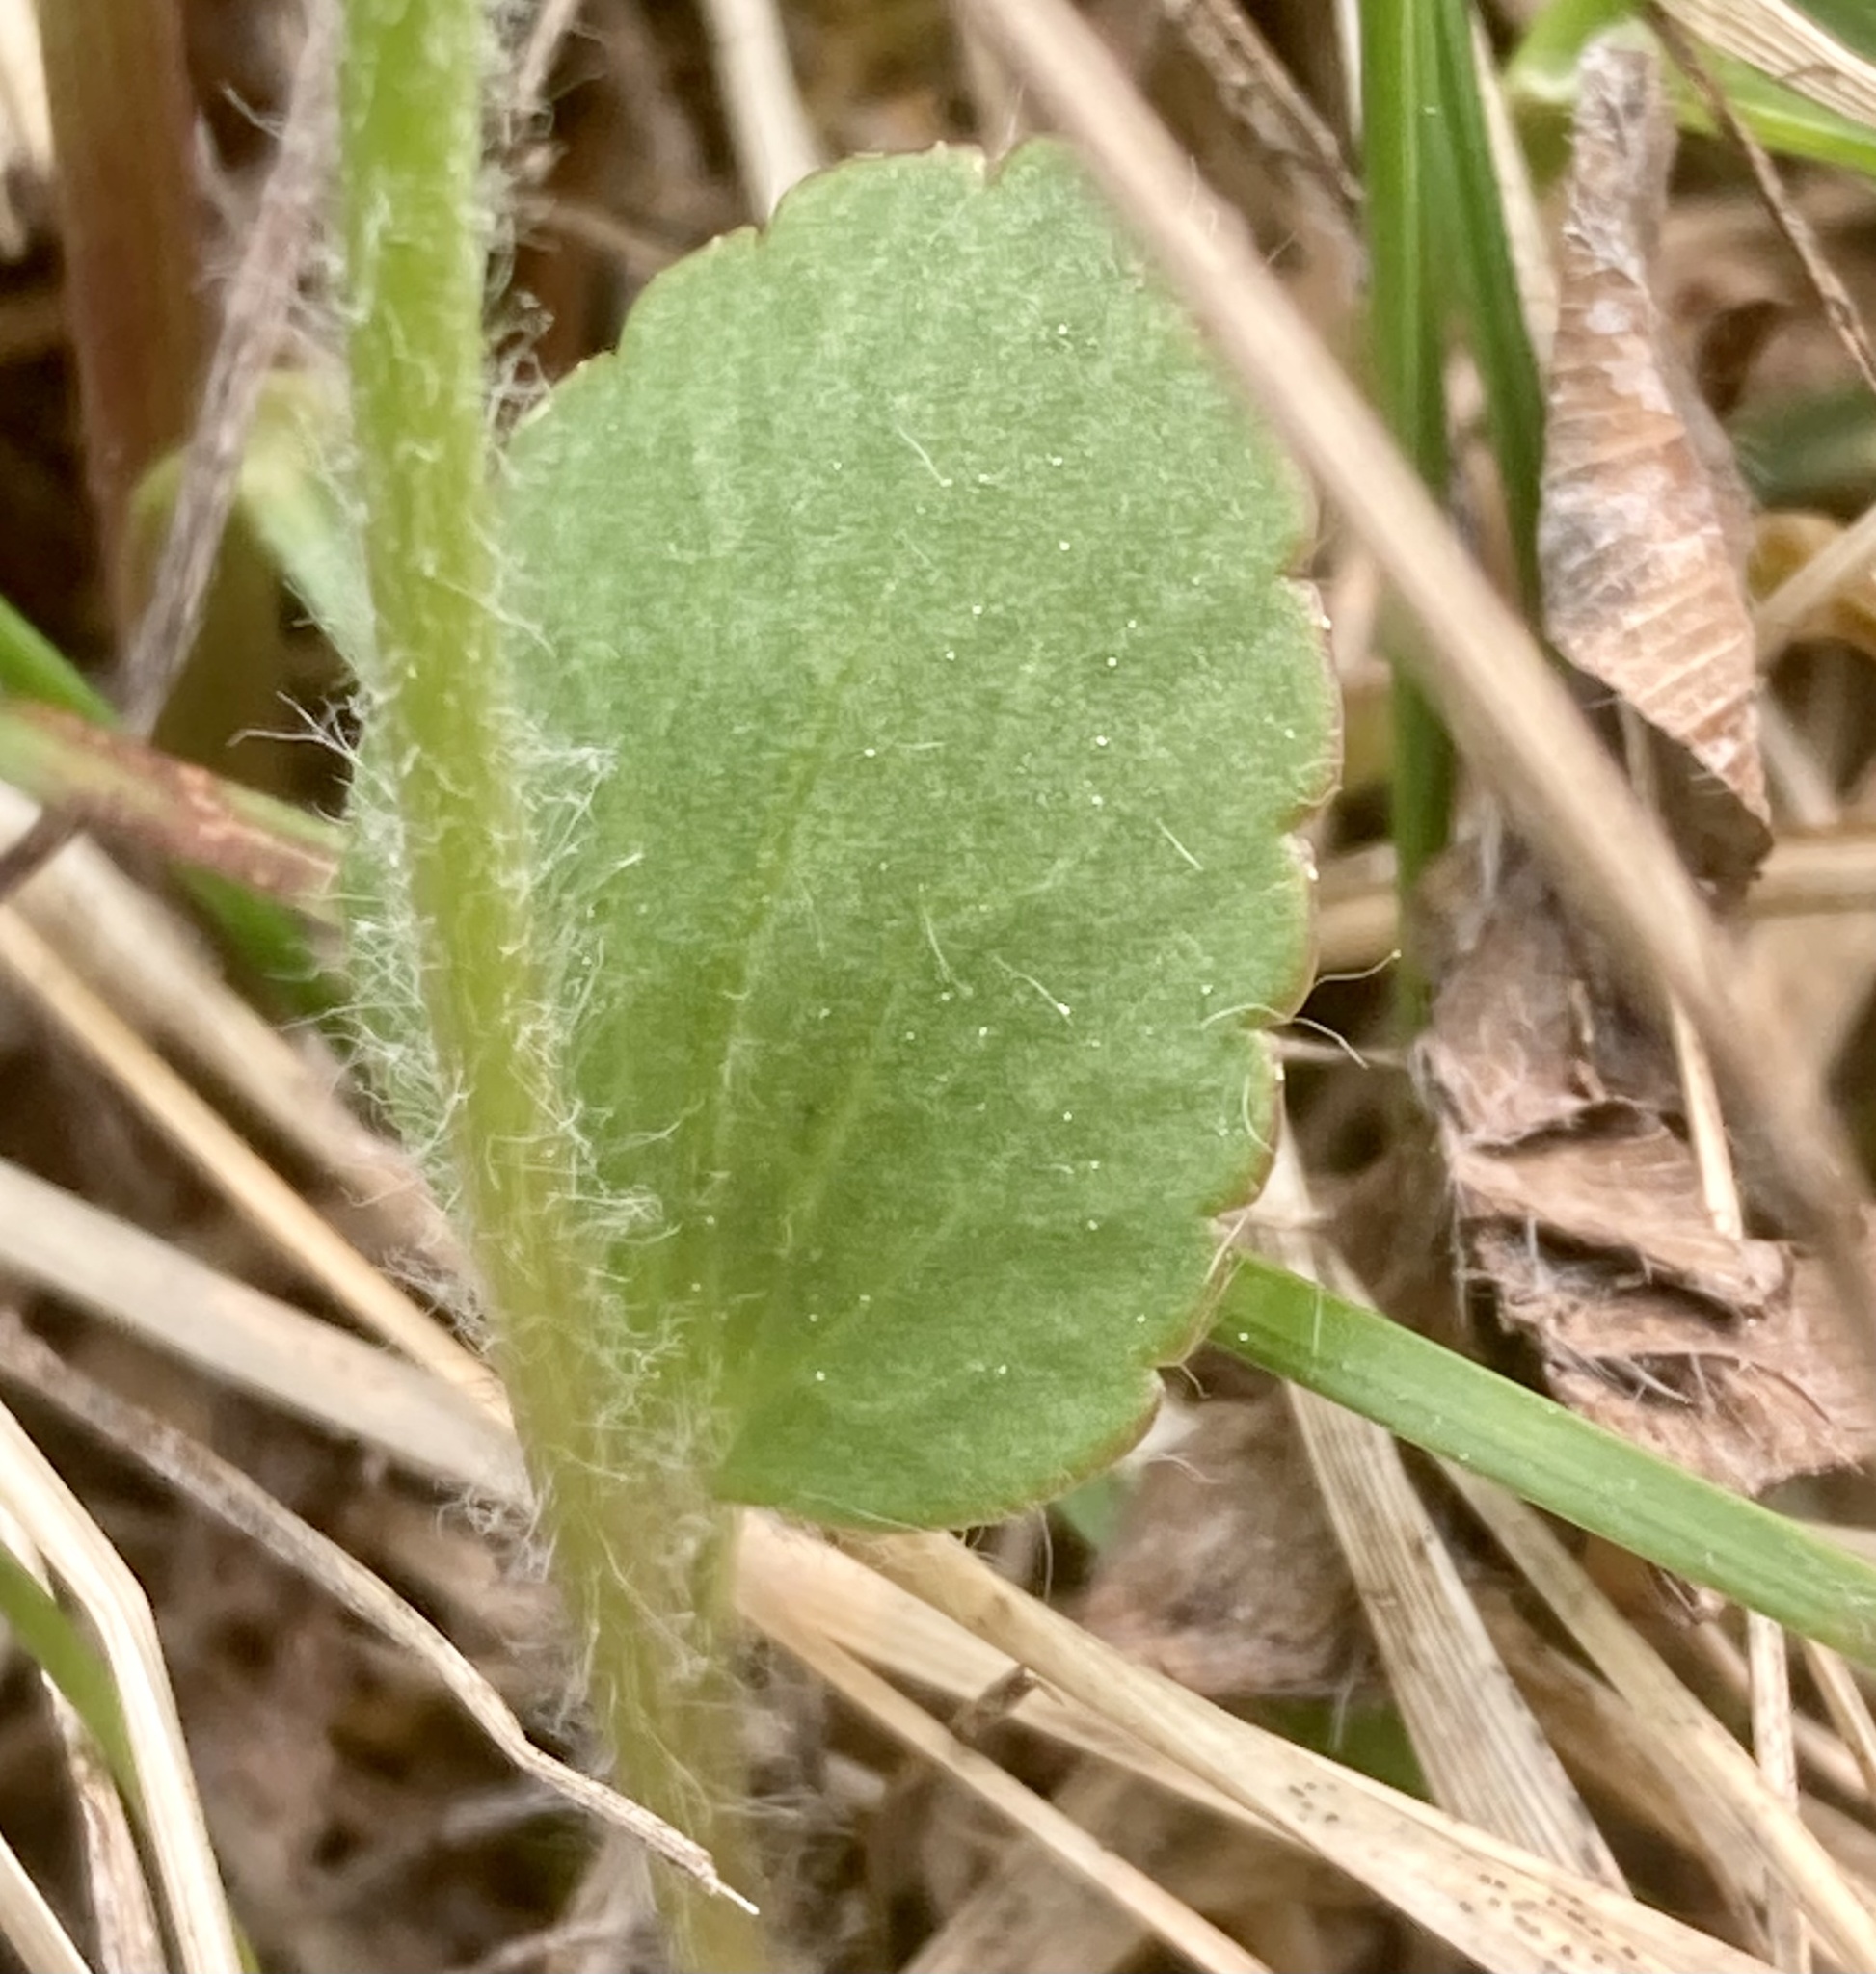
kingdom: Plantae
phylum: Tracheophyta
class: Magnoliopsida
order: Ranunculales
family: Ranunculaceae
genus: Ranunculus
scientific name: Ranunculus rhomboideus
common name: Prairie buttercup
